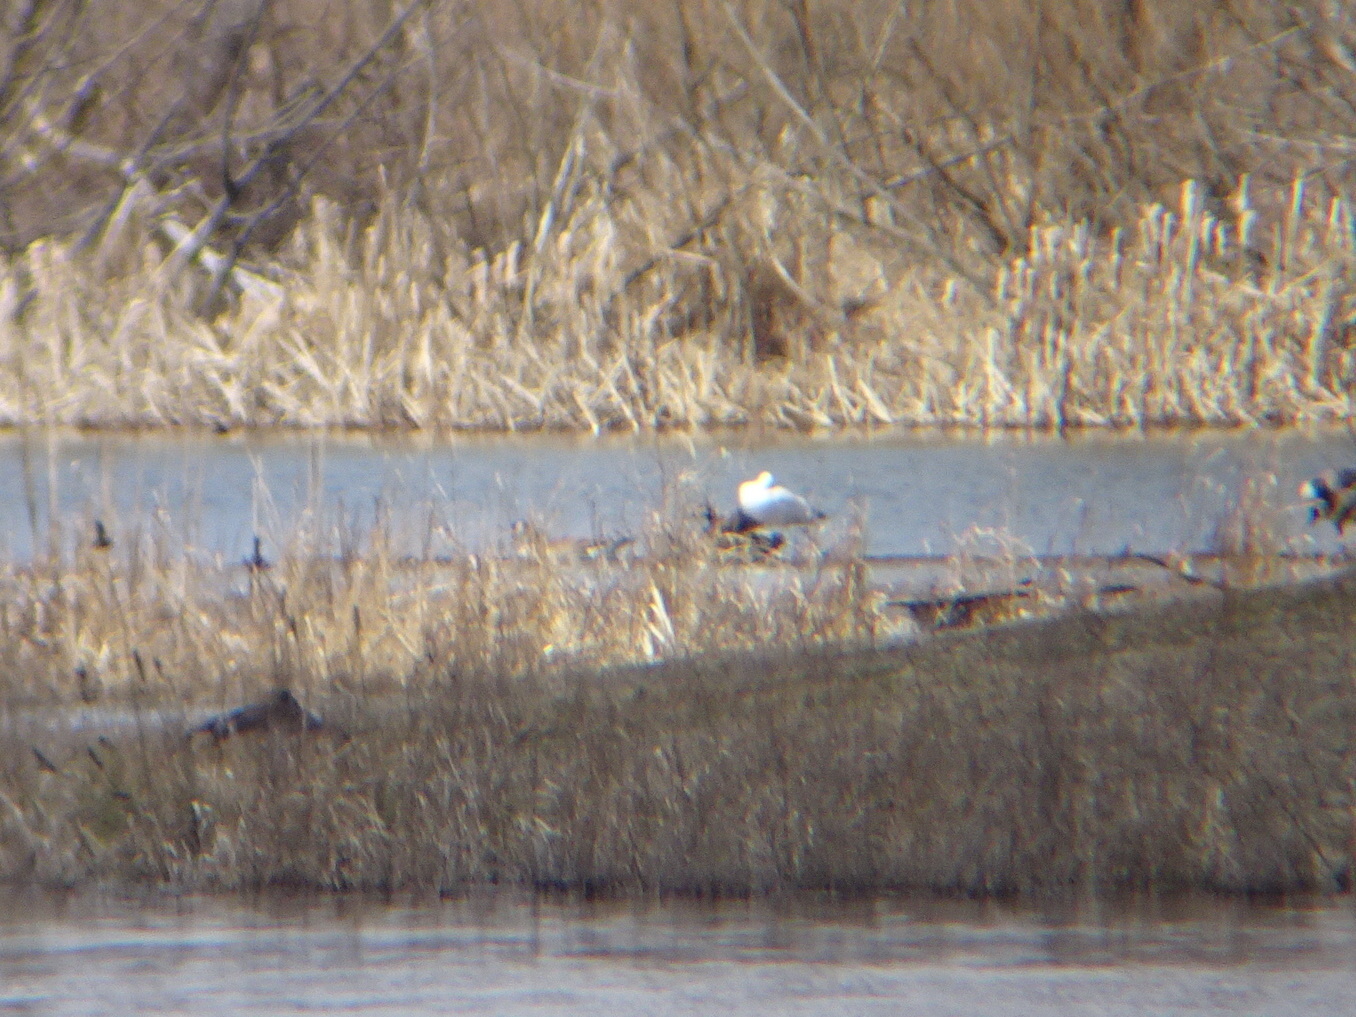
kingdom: Animalia
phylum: Chordata
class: Aves
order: Anseriformes
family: Anatidae
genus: Anser
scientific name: Anser caerulescens
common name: Snow goose
